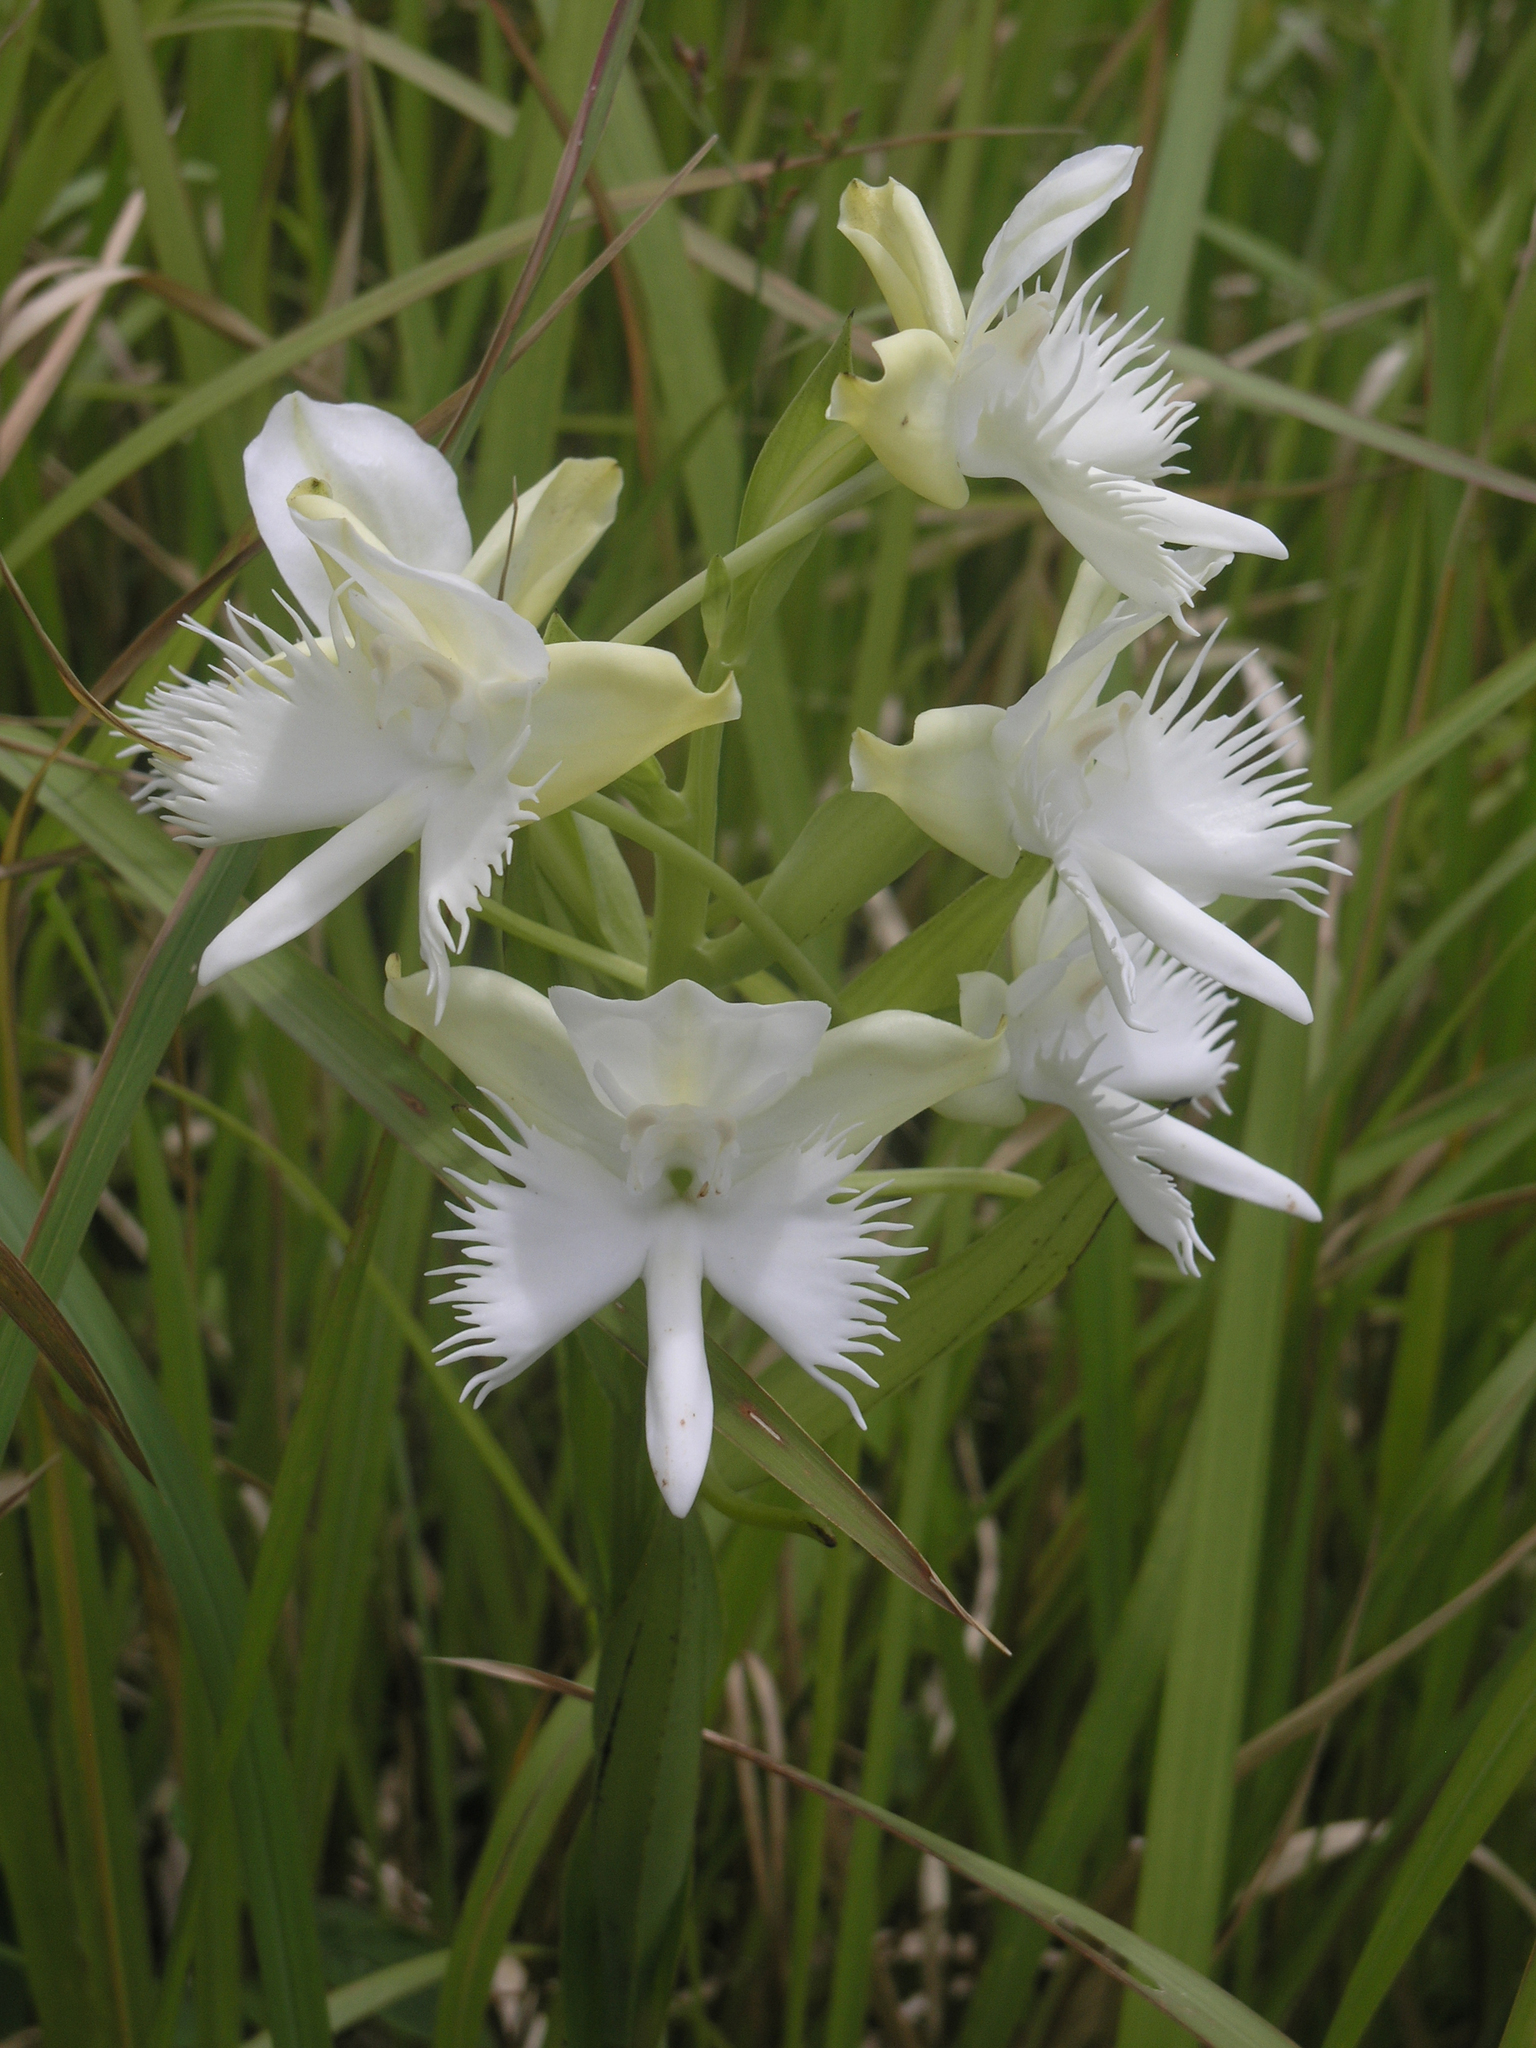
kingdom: Plantae
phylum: Tracheophyta
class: Liliopsida
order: Asparagales
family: Orchidaceae
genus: Pecteilis
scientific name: Pecteilis susannae
